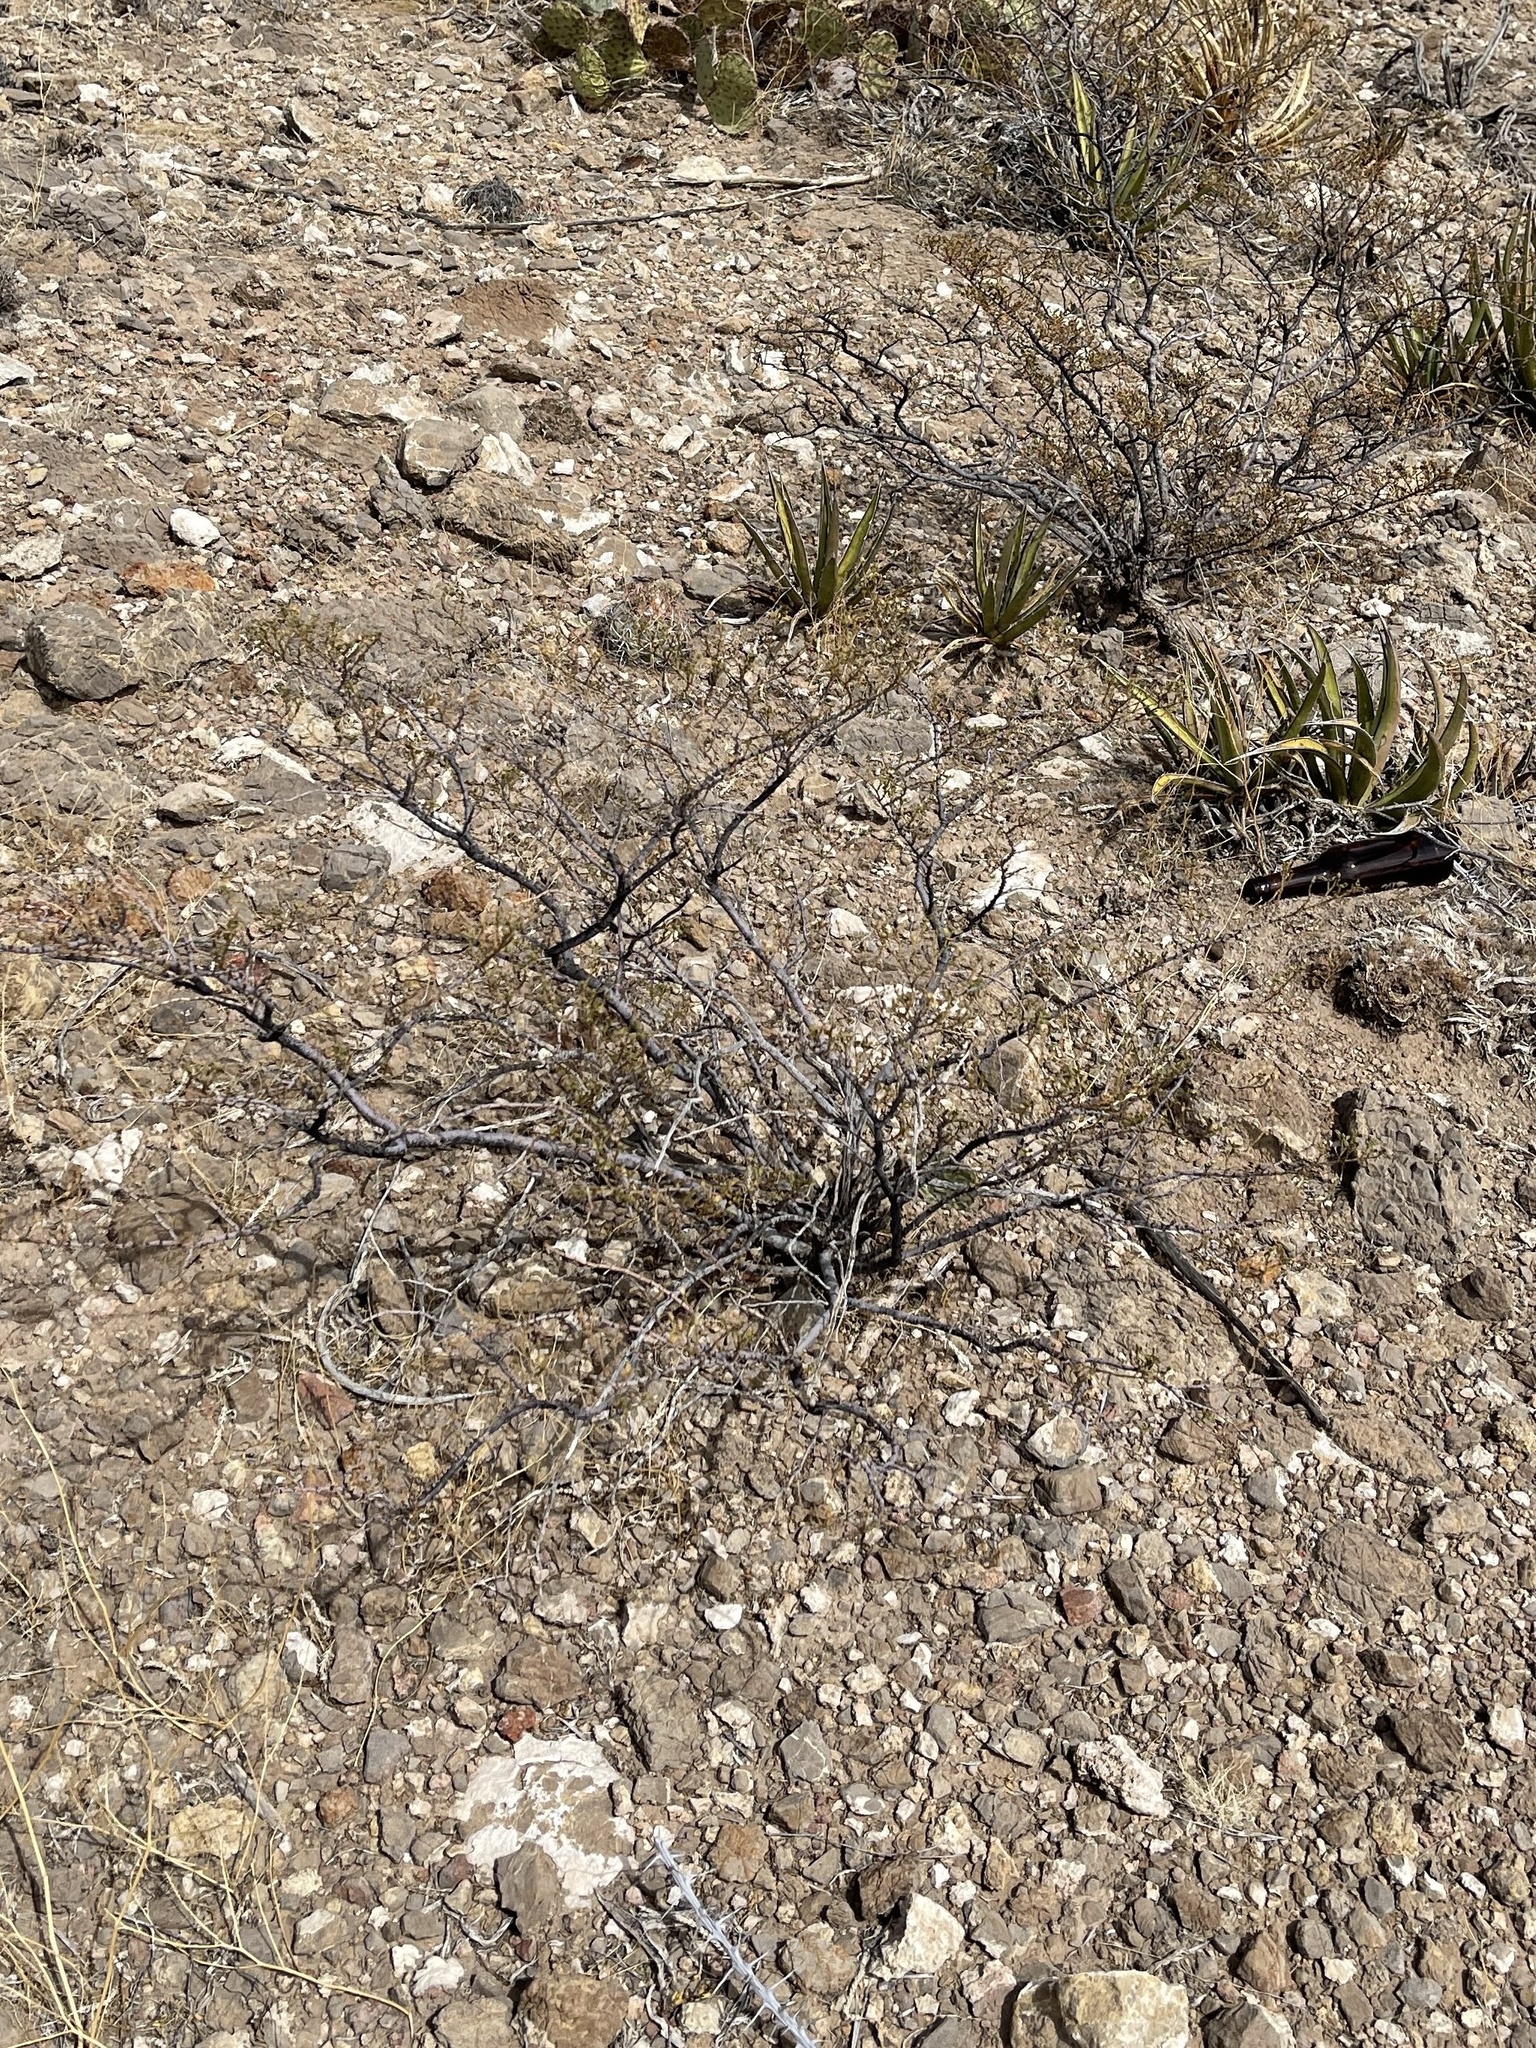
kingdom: Plantae
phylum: Tracheophyta
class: Magnoliopsida
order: Zygophyllales
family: Zygophyllaceae
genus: Larrea
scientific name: Larrea tridentata
